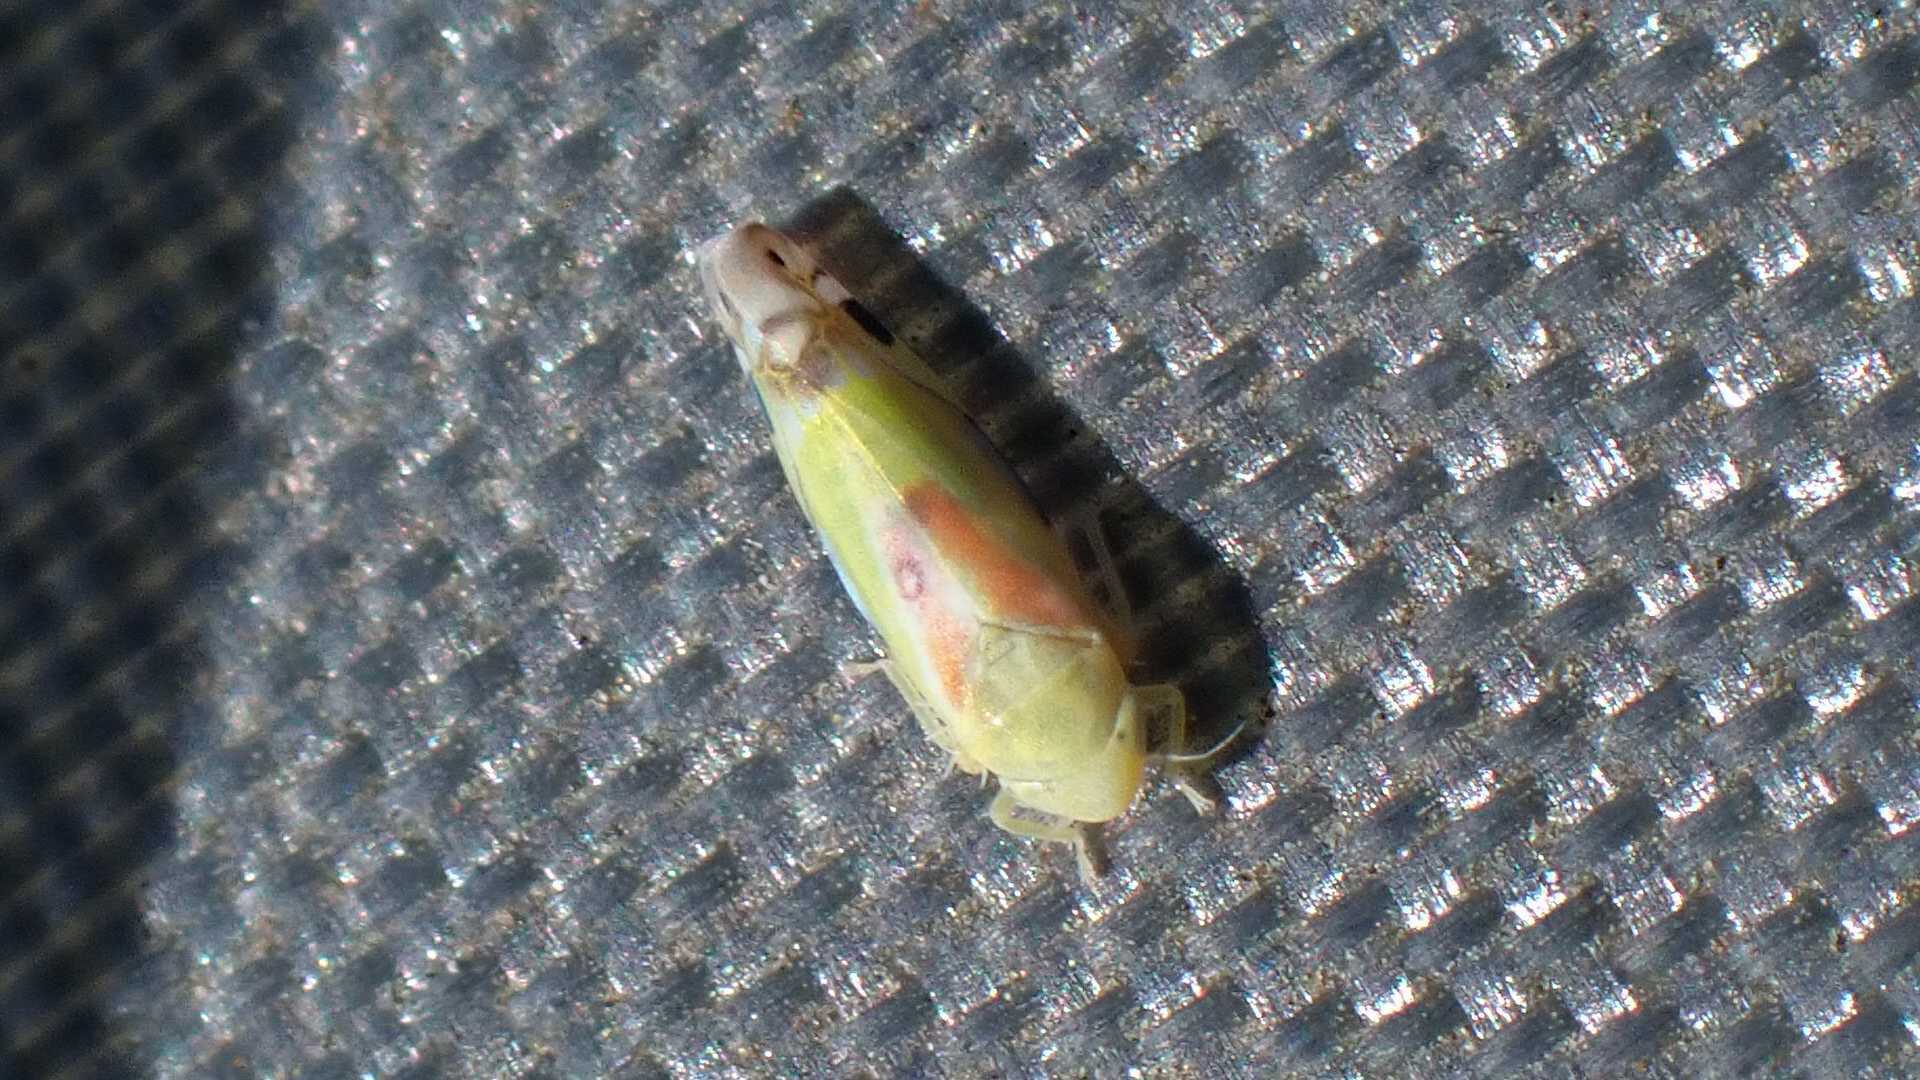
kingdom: Animalia
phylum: Arthropoda
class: Insecta
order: Hemiptera
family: Cicadellidae
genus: Zyginella
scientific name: Zyginella pulchra
